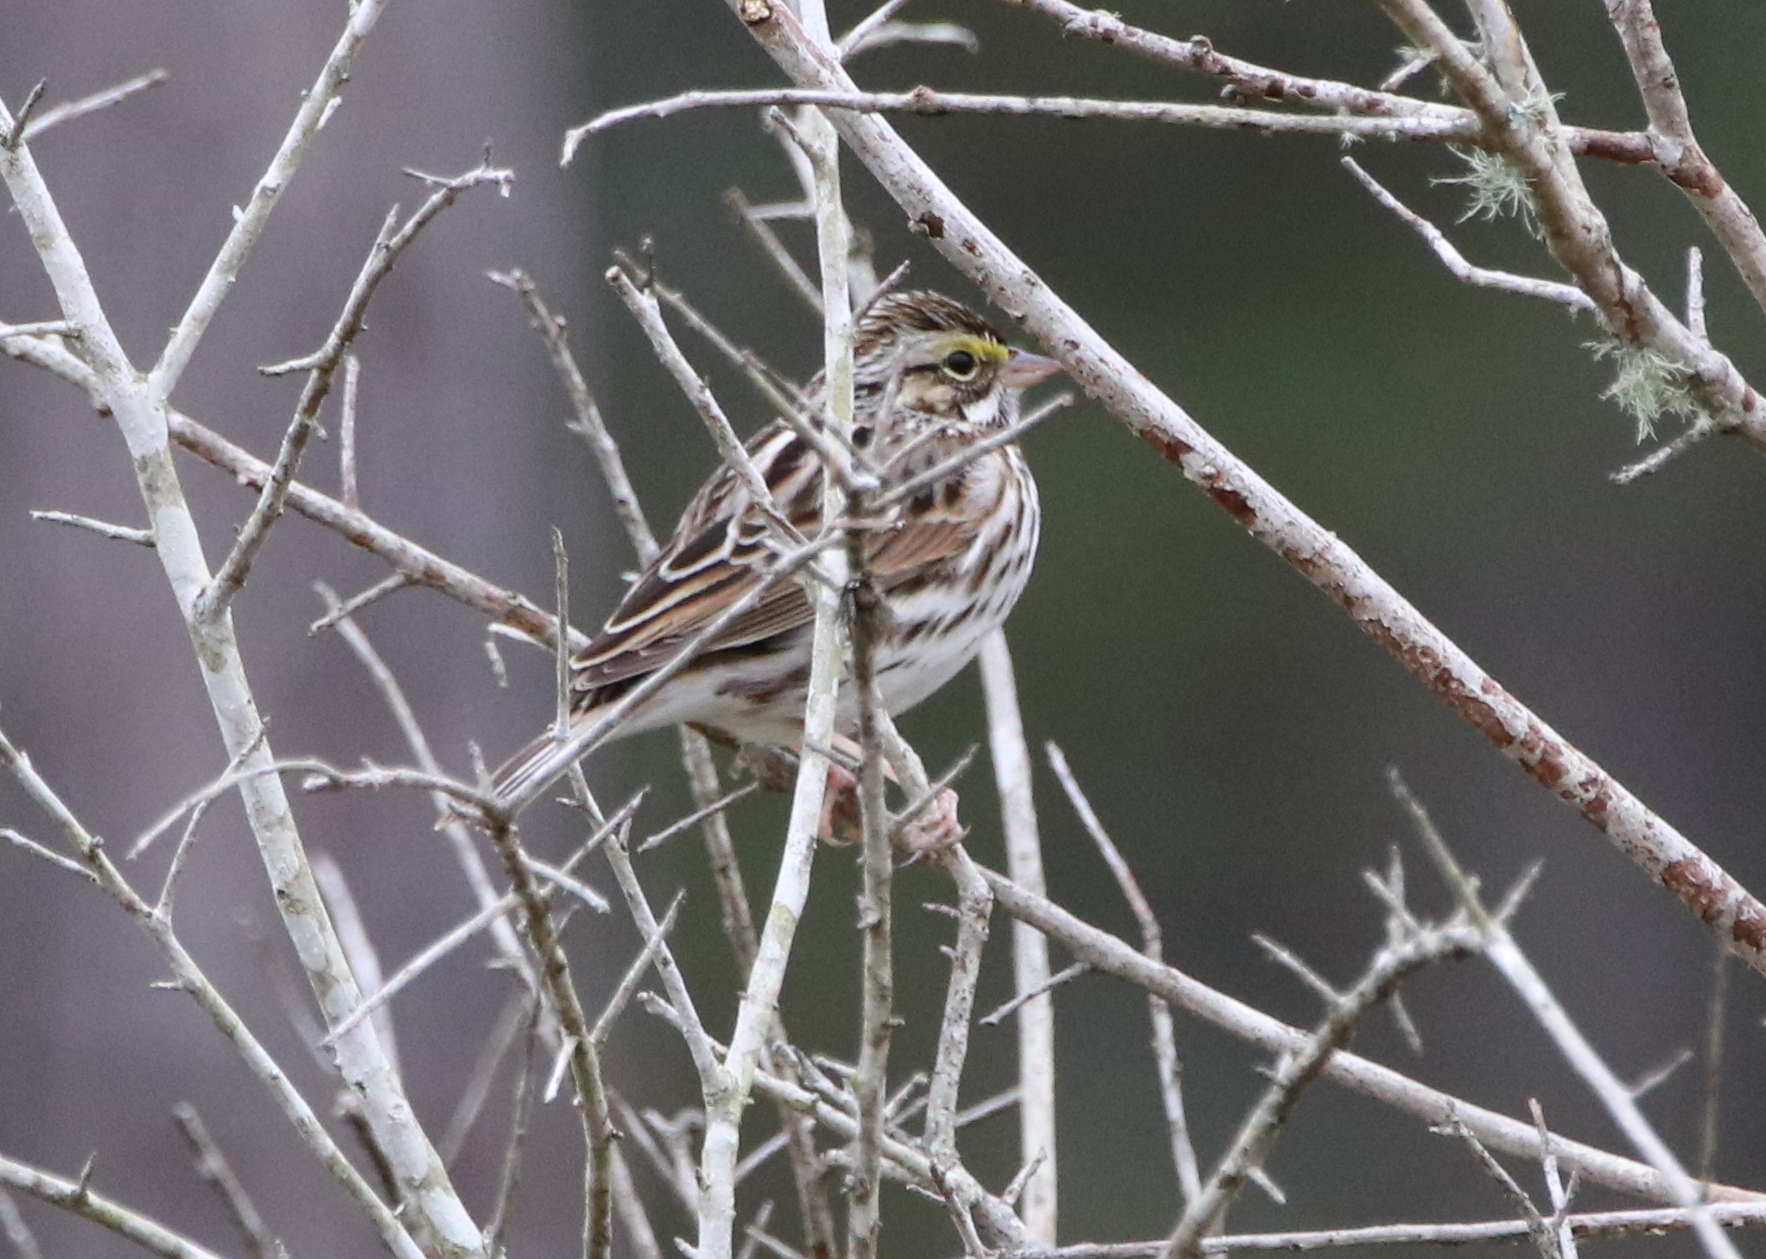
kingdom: Animalia
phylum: Chordata
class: Aves
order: Passeriformes
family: Passerellidae
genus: Passerculus
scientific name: Passerculus sandwichensis
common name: Savannah sparrow
